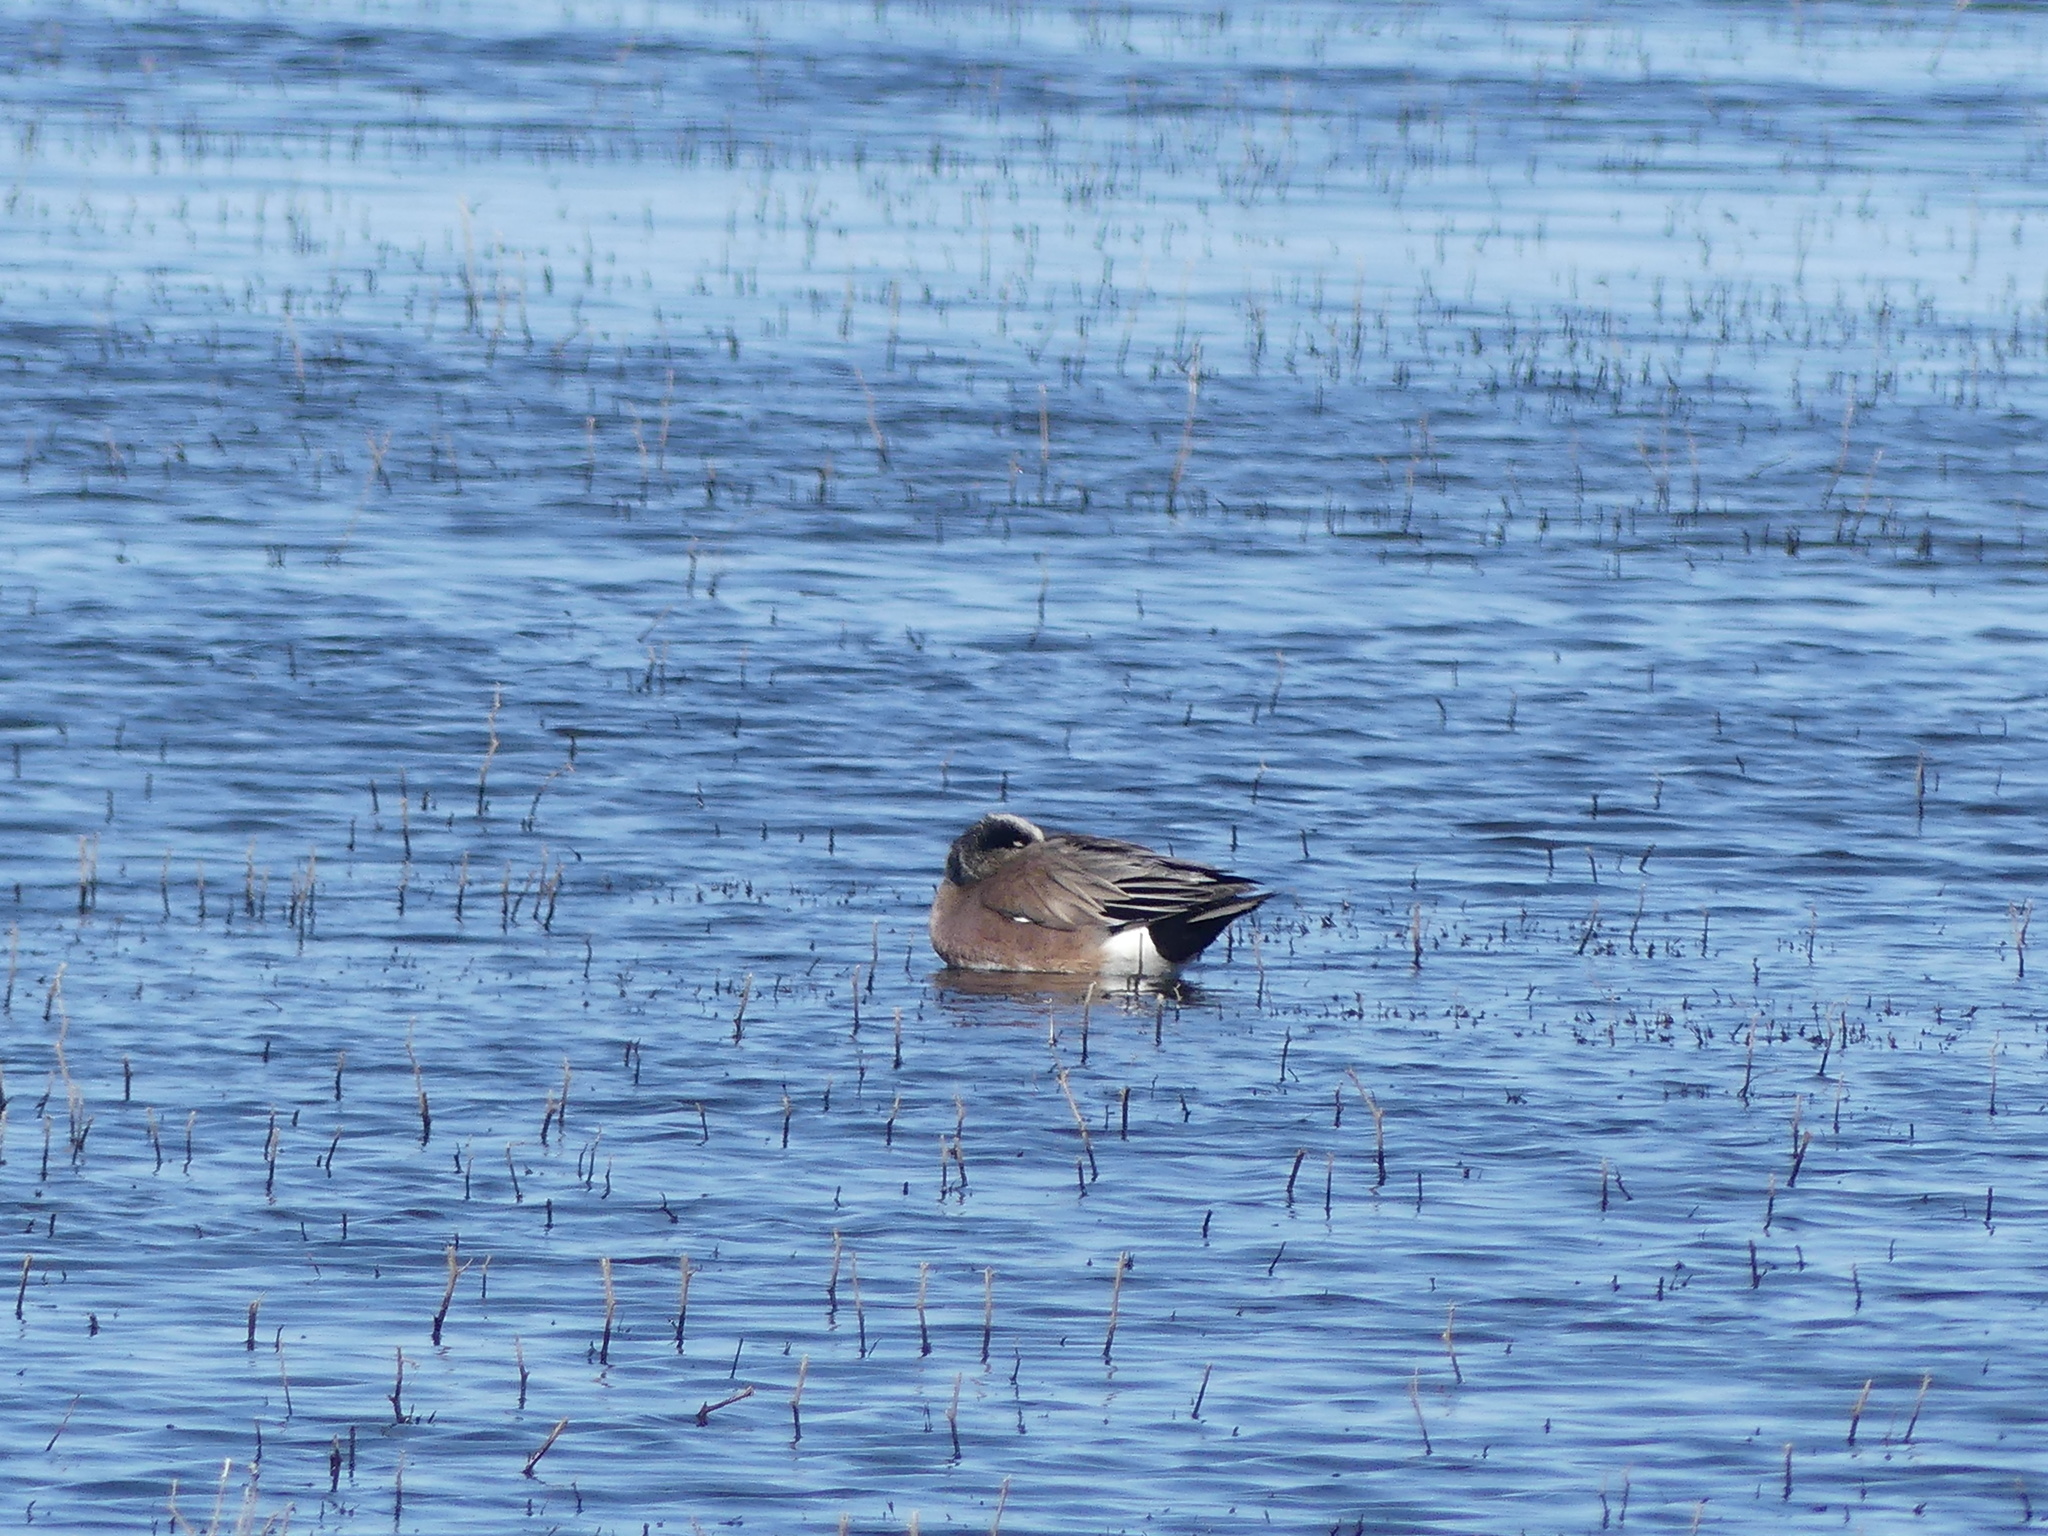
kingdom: Animalia
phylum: Chordata
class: Aves
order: Anseriformes
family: Anatidae
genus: Mareca
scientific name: Mareca americana
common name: American wigeon
